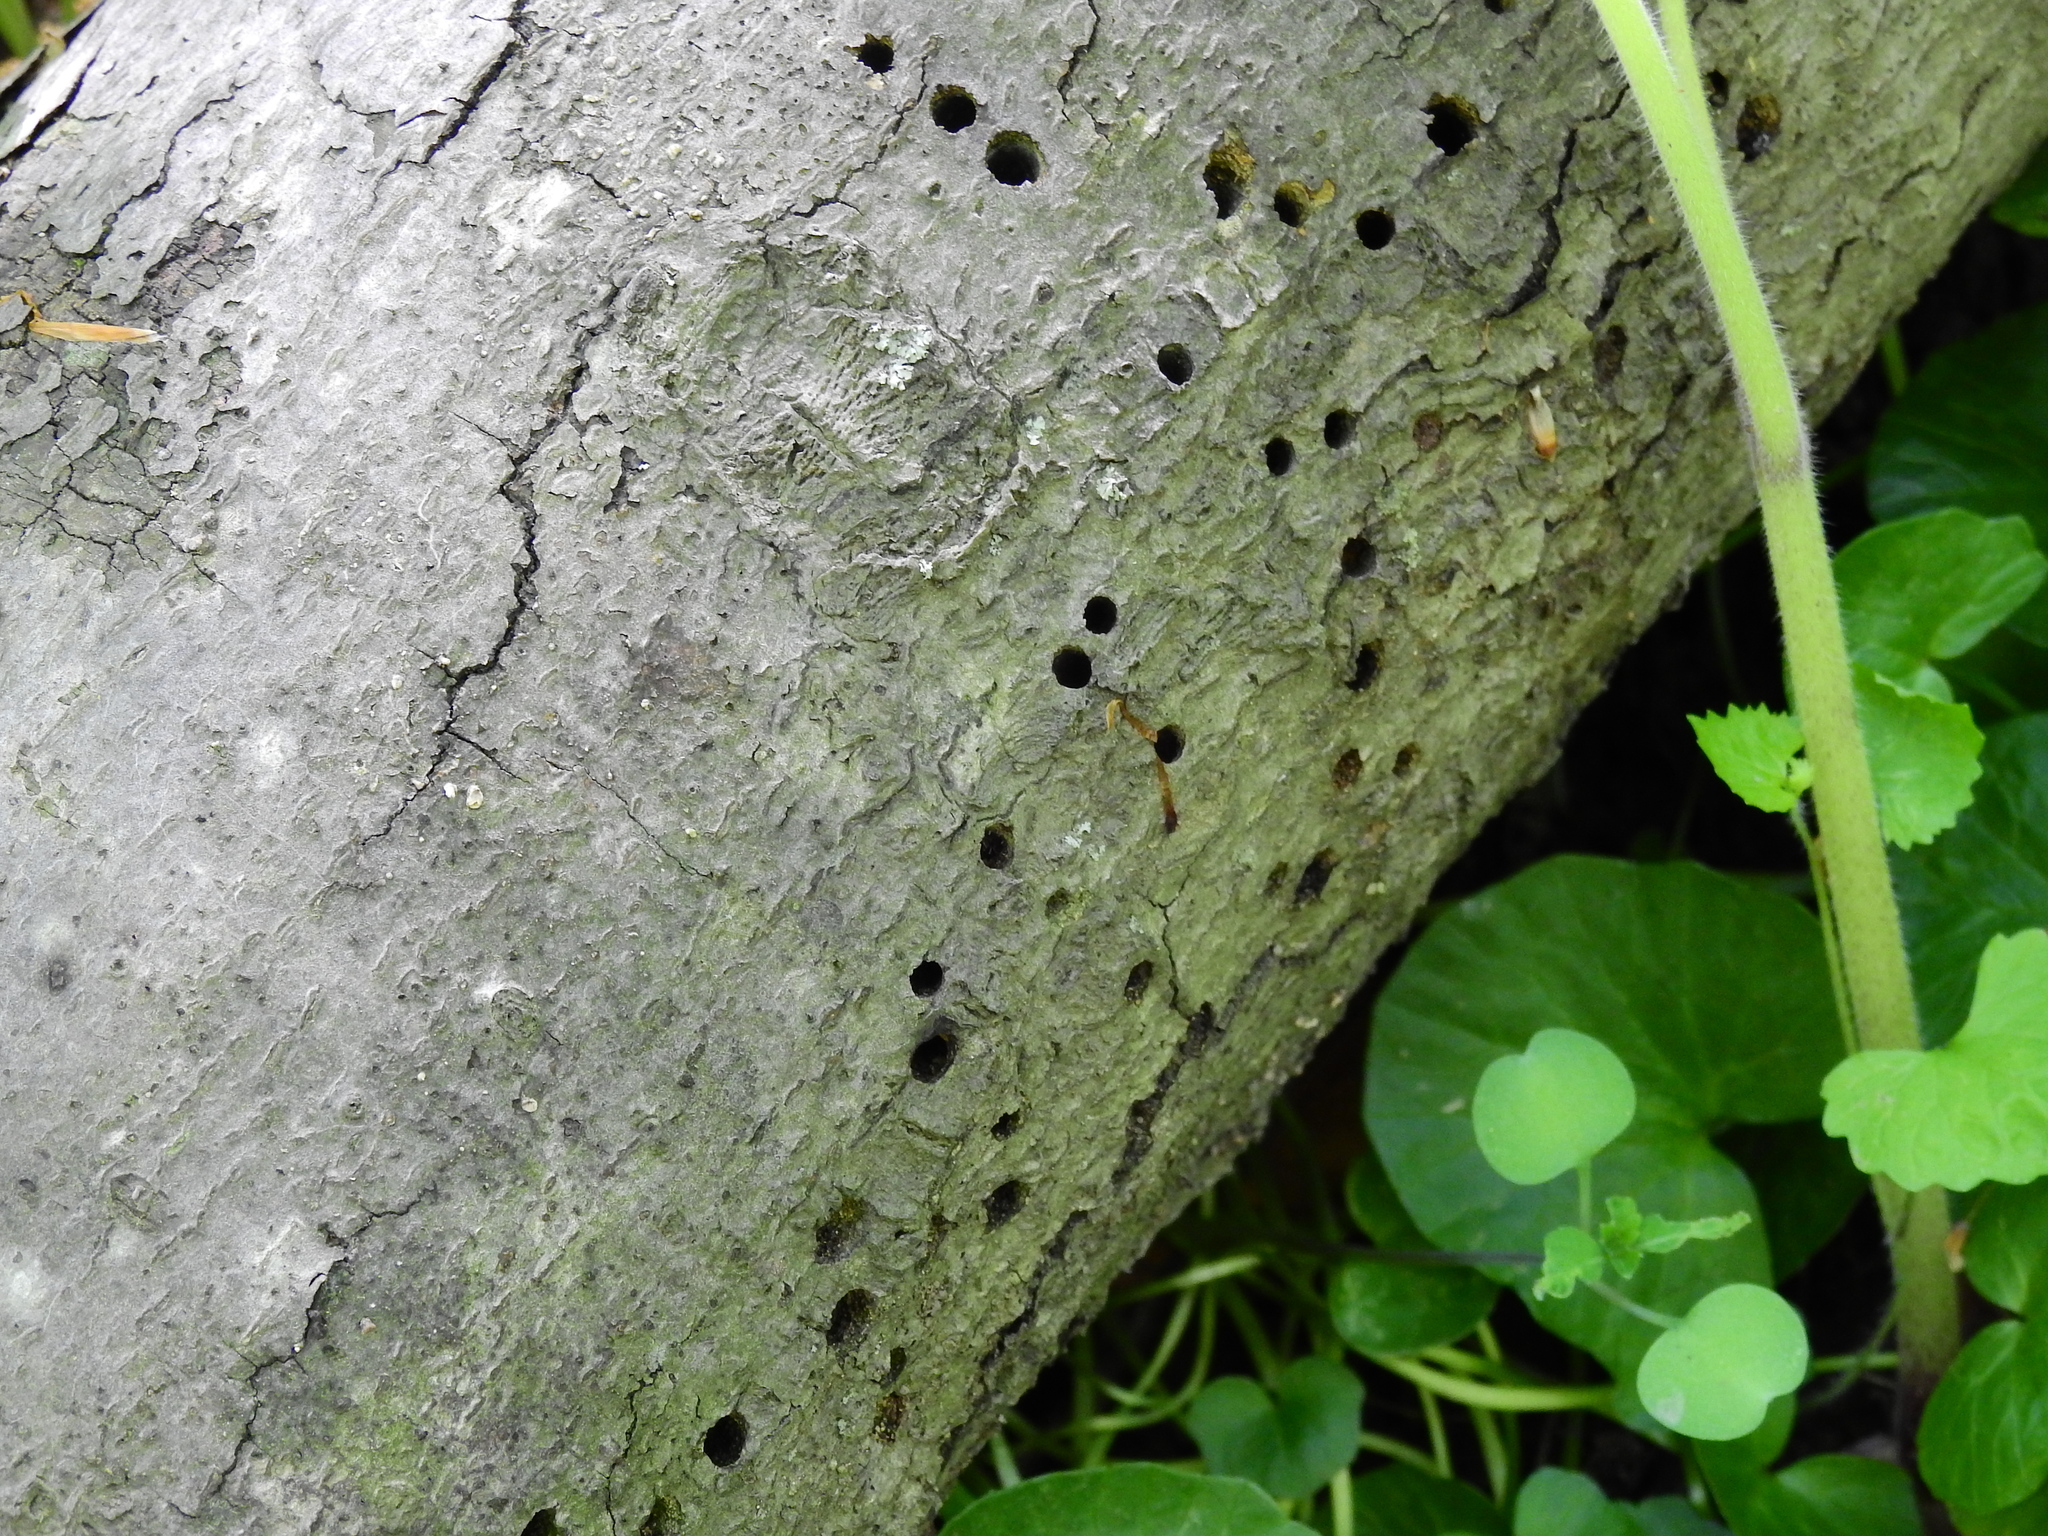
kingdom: Animalia
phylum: Chordata
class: Aves
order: Piciformes
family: Picidae
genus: Sphyrapicus
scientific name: Sphyrapicus varius
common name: Yellow-bellied sapsucker
